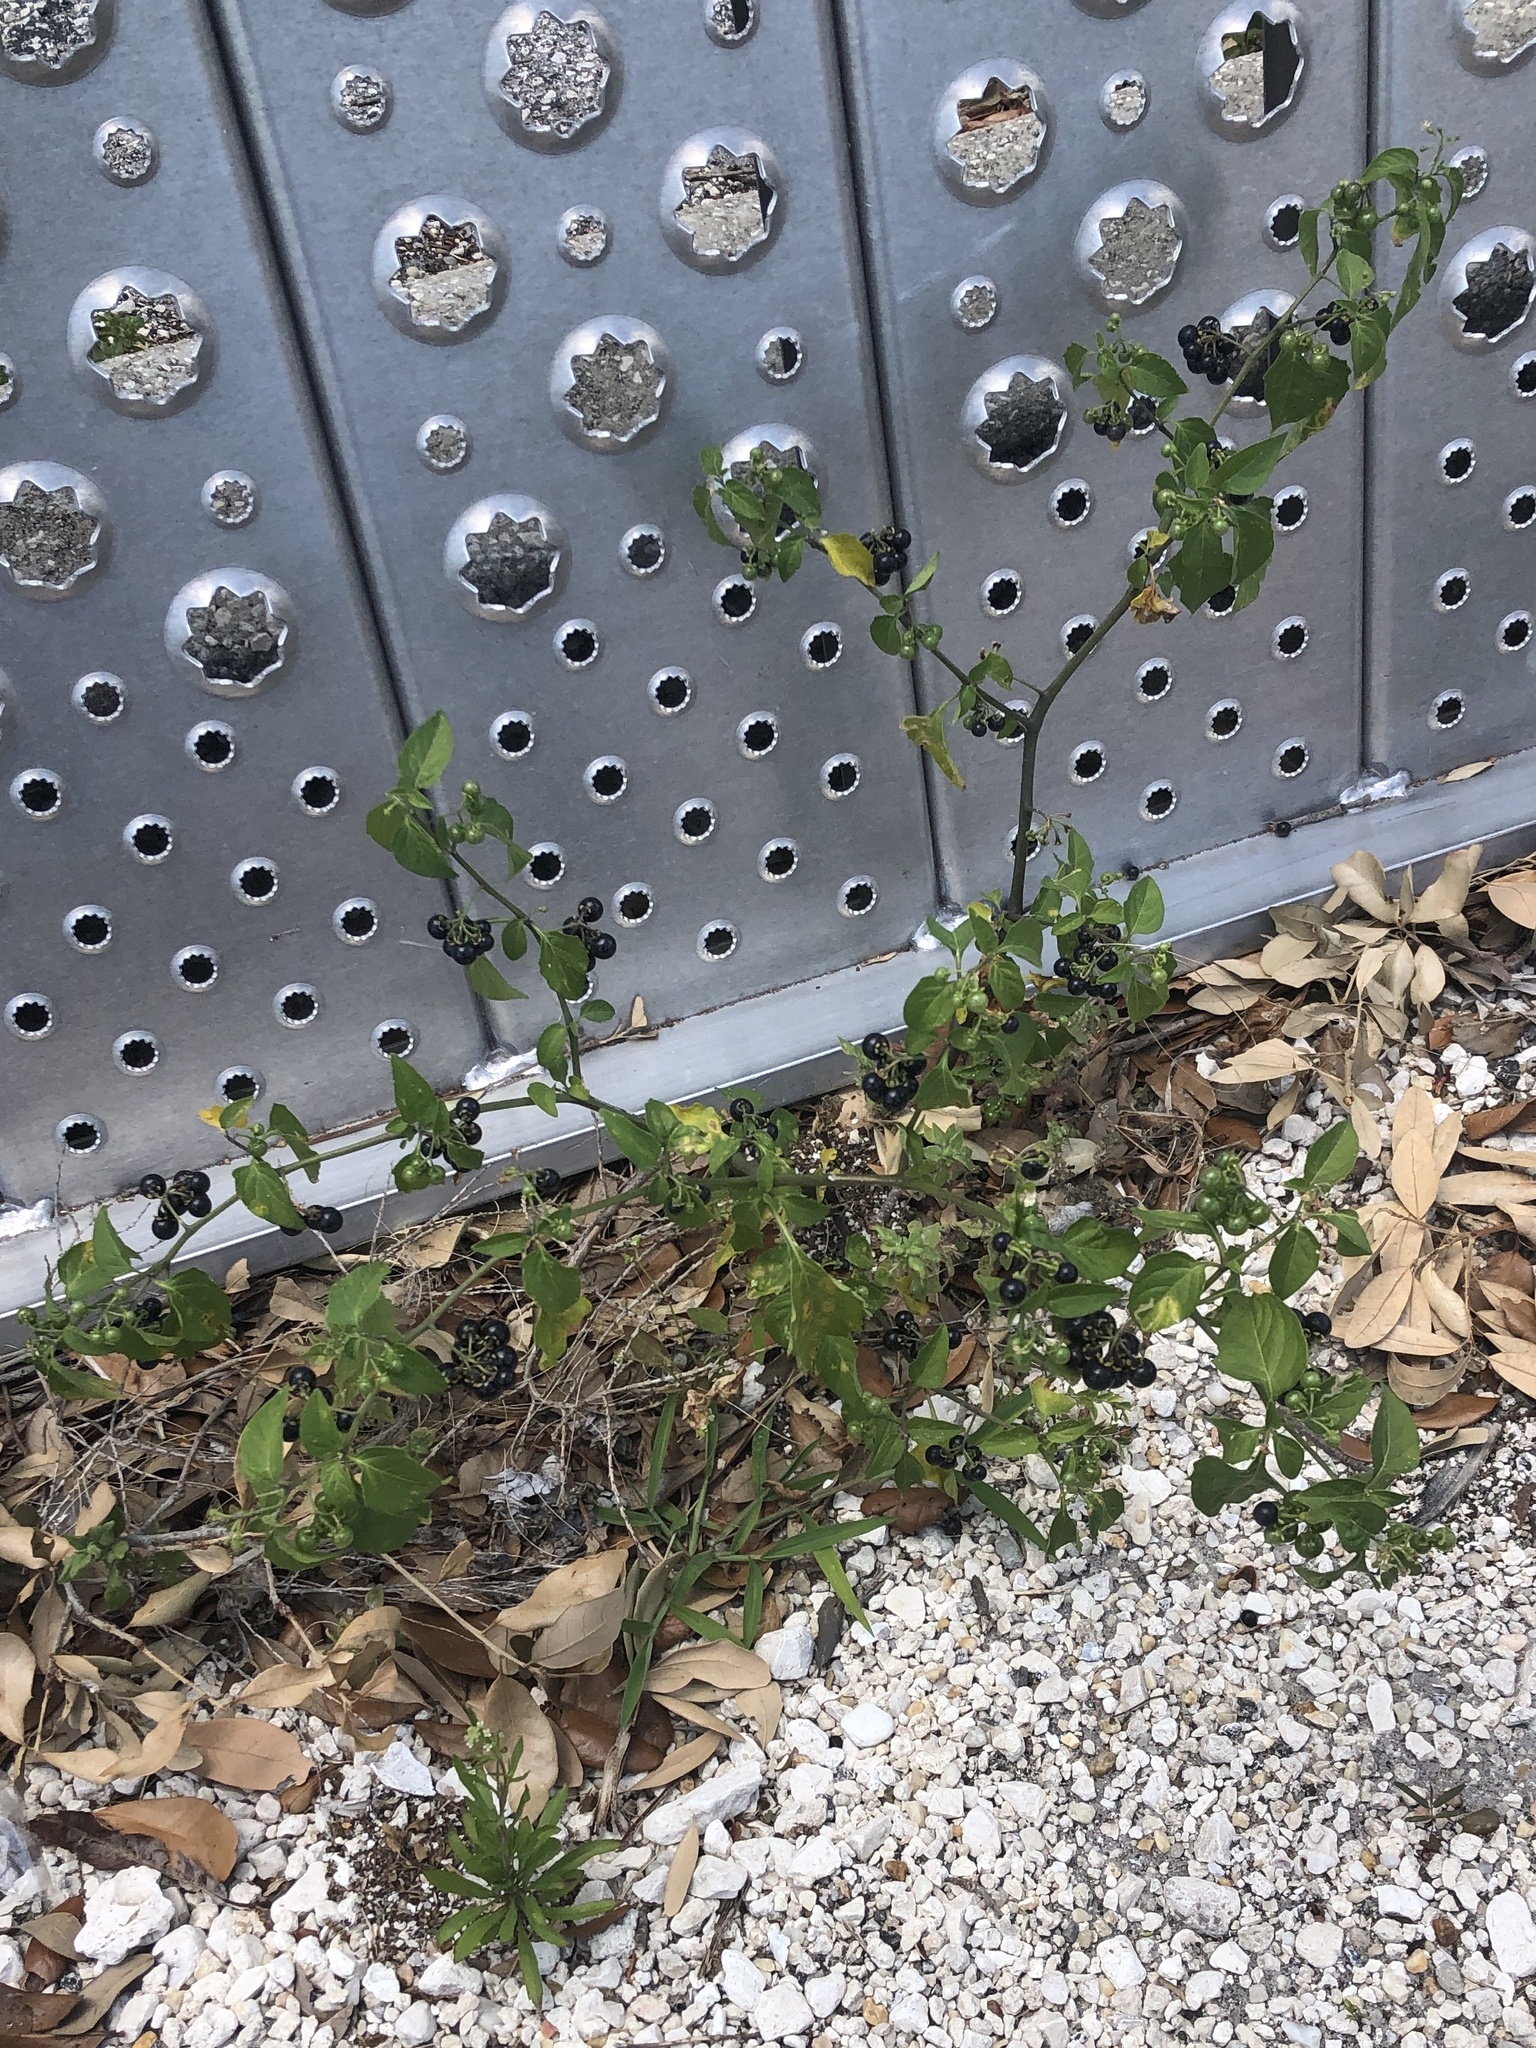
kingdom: Plantae
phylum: Tracheophyta
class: Magnoliopsida
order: Solanales
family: Solanaceae
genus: Solanum
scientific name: Solanum americanum
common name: American black nightshade
